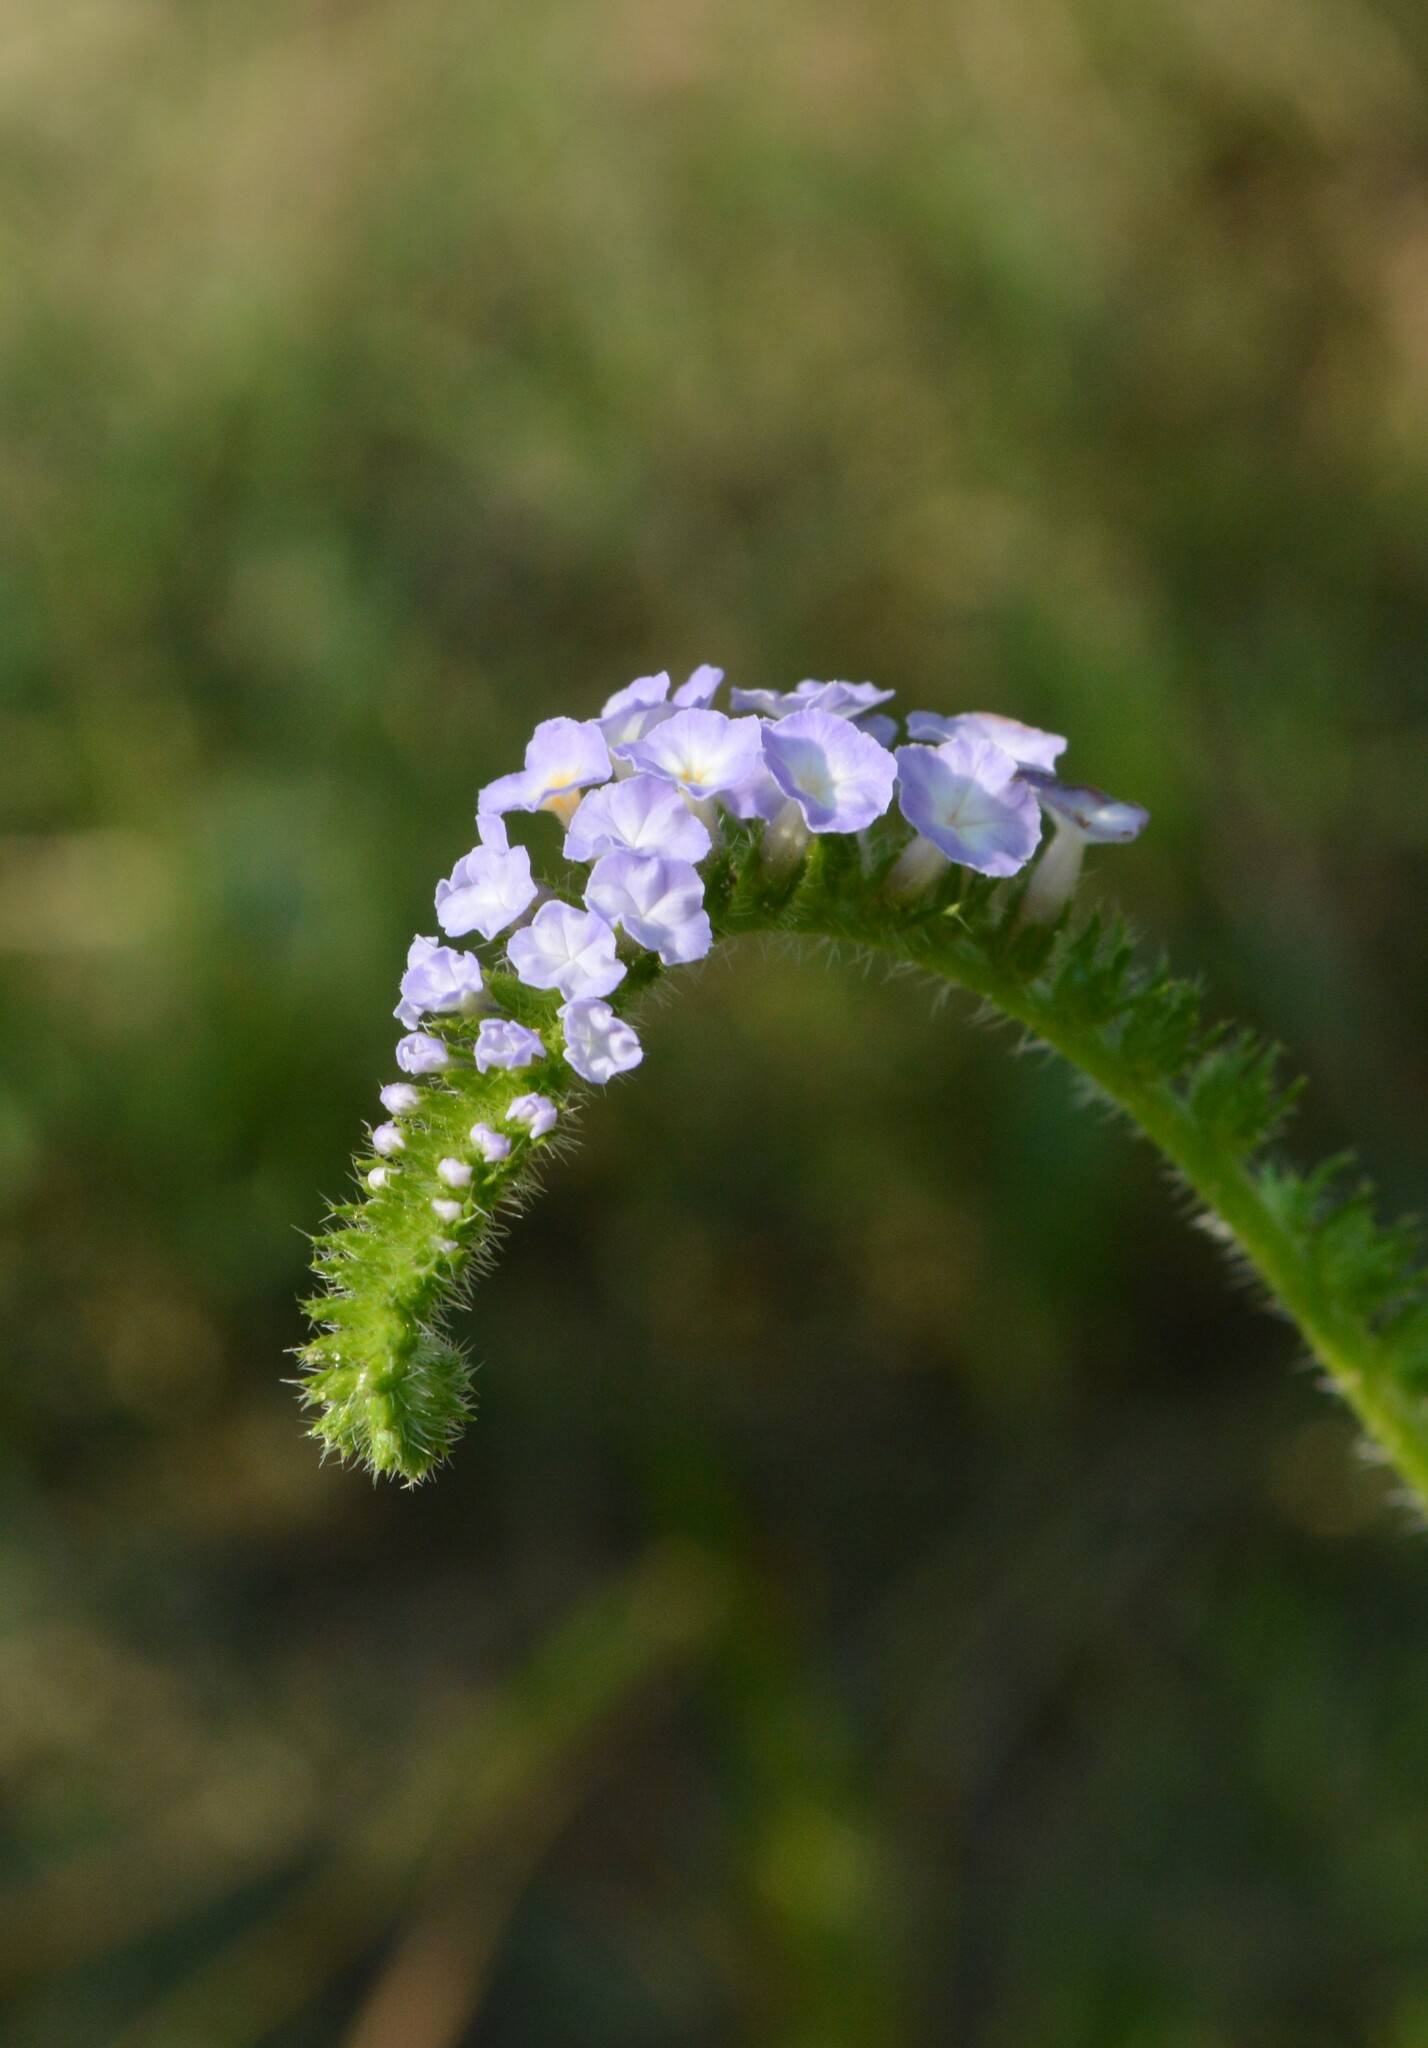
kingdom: Plantae
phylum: Tracheophyta
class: Magnoliopsida
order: Boraginales
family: Heliotropiaceae
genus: Heliotropium
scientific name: Heliotropium indicum
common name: Indian heliotrope
